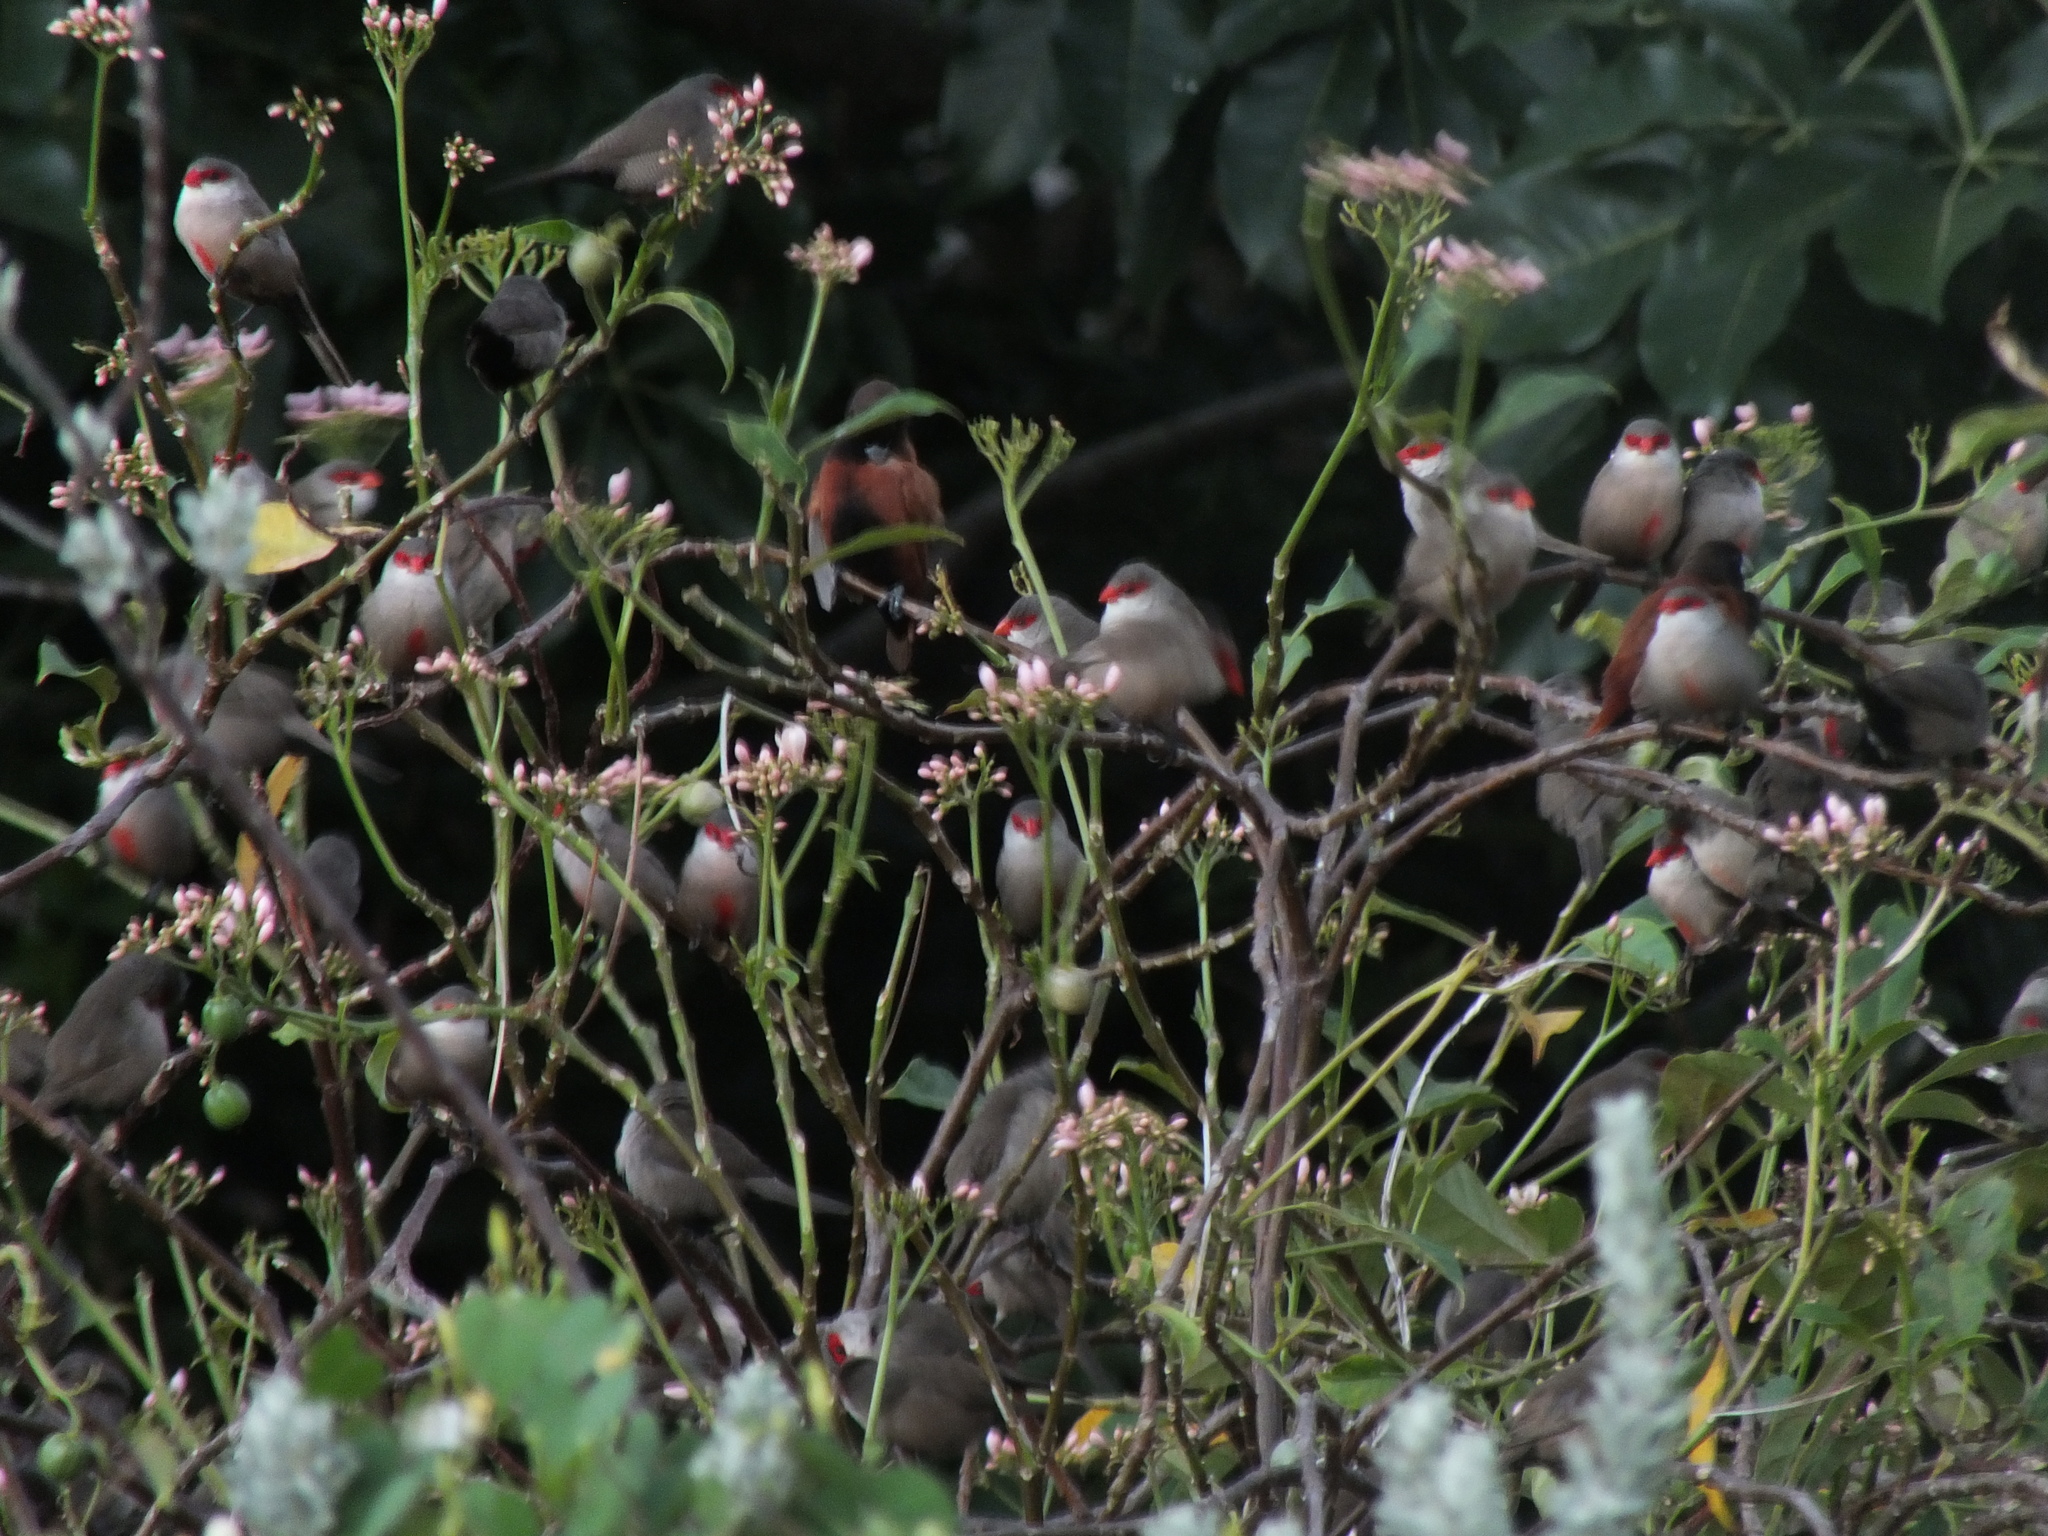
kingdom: Animalia
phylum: Chordata
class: Aves
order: Passeriformes
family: Estrildidae
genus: Lonchura
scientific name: Lonchura atricapilla
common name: Chestnut munia
